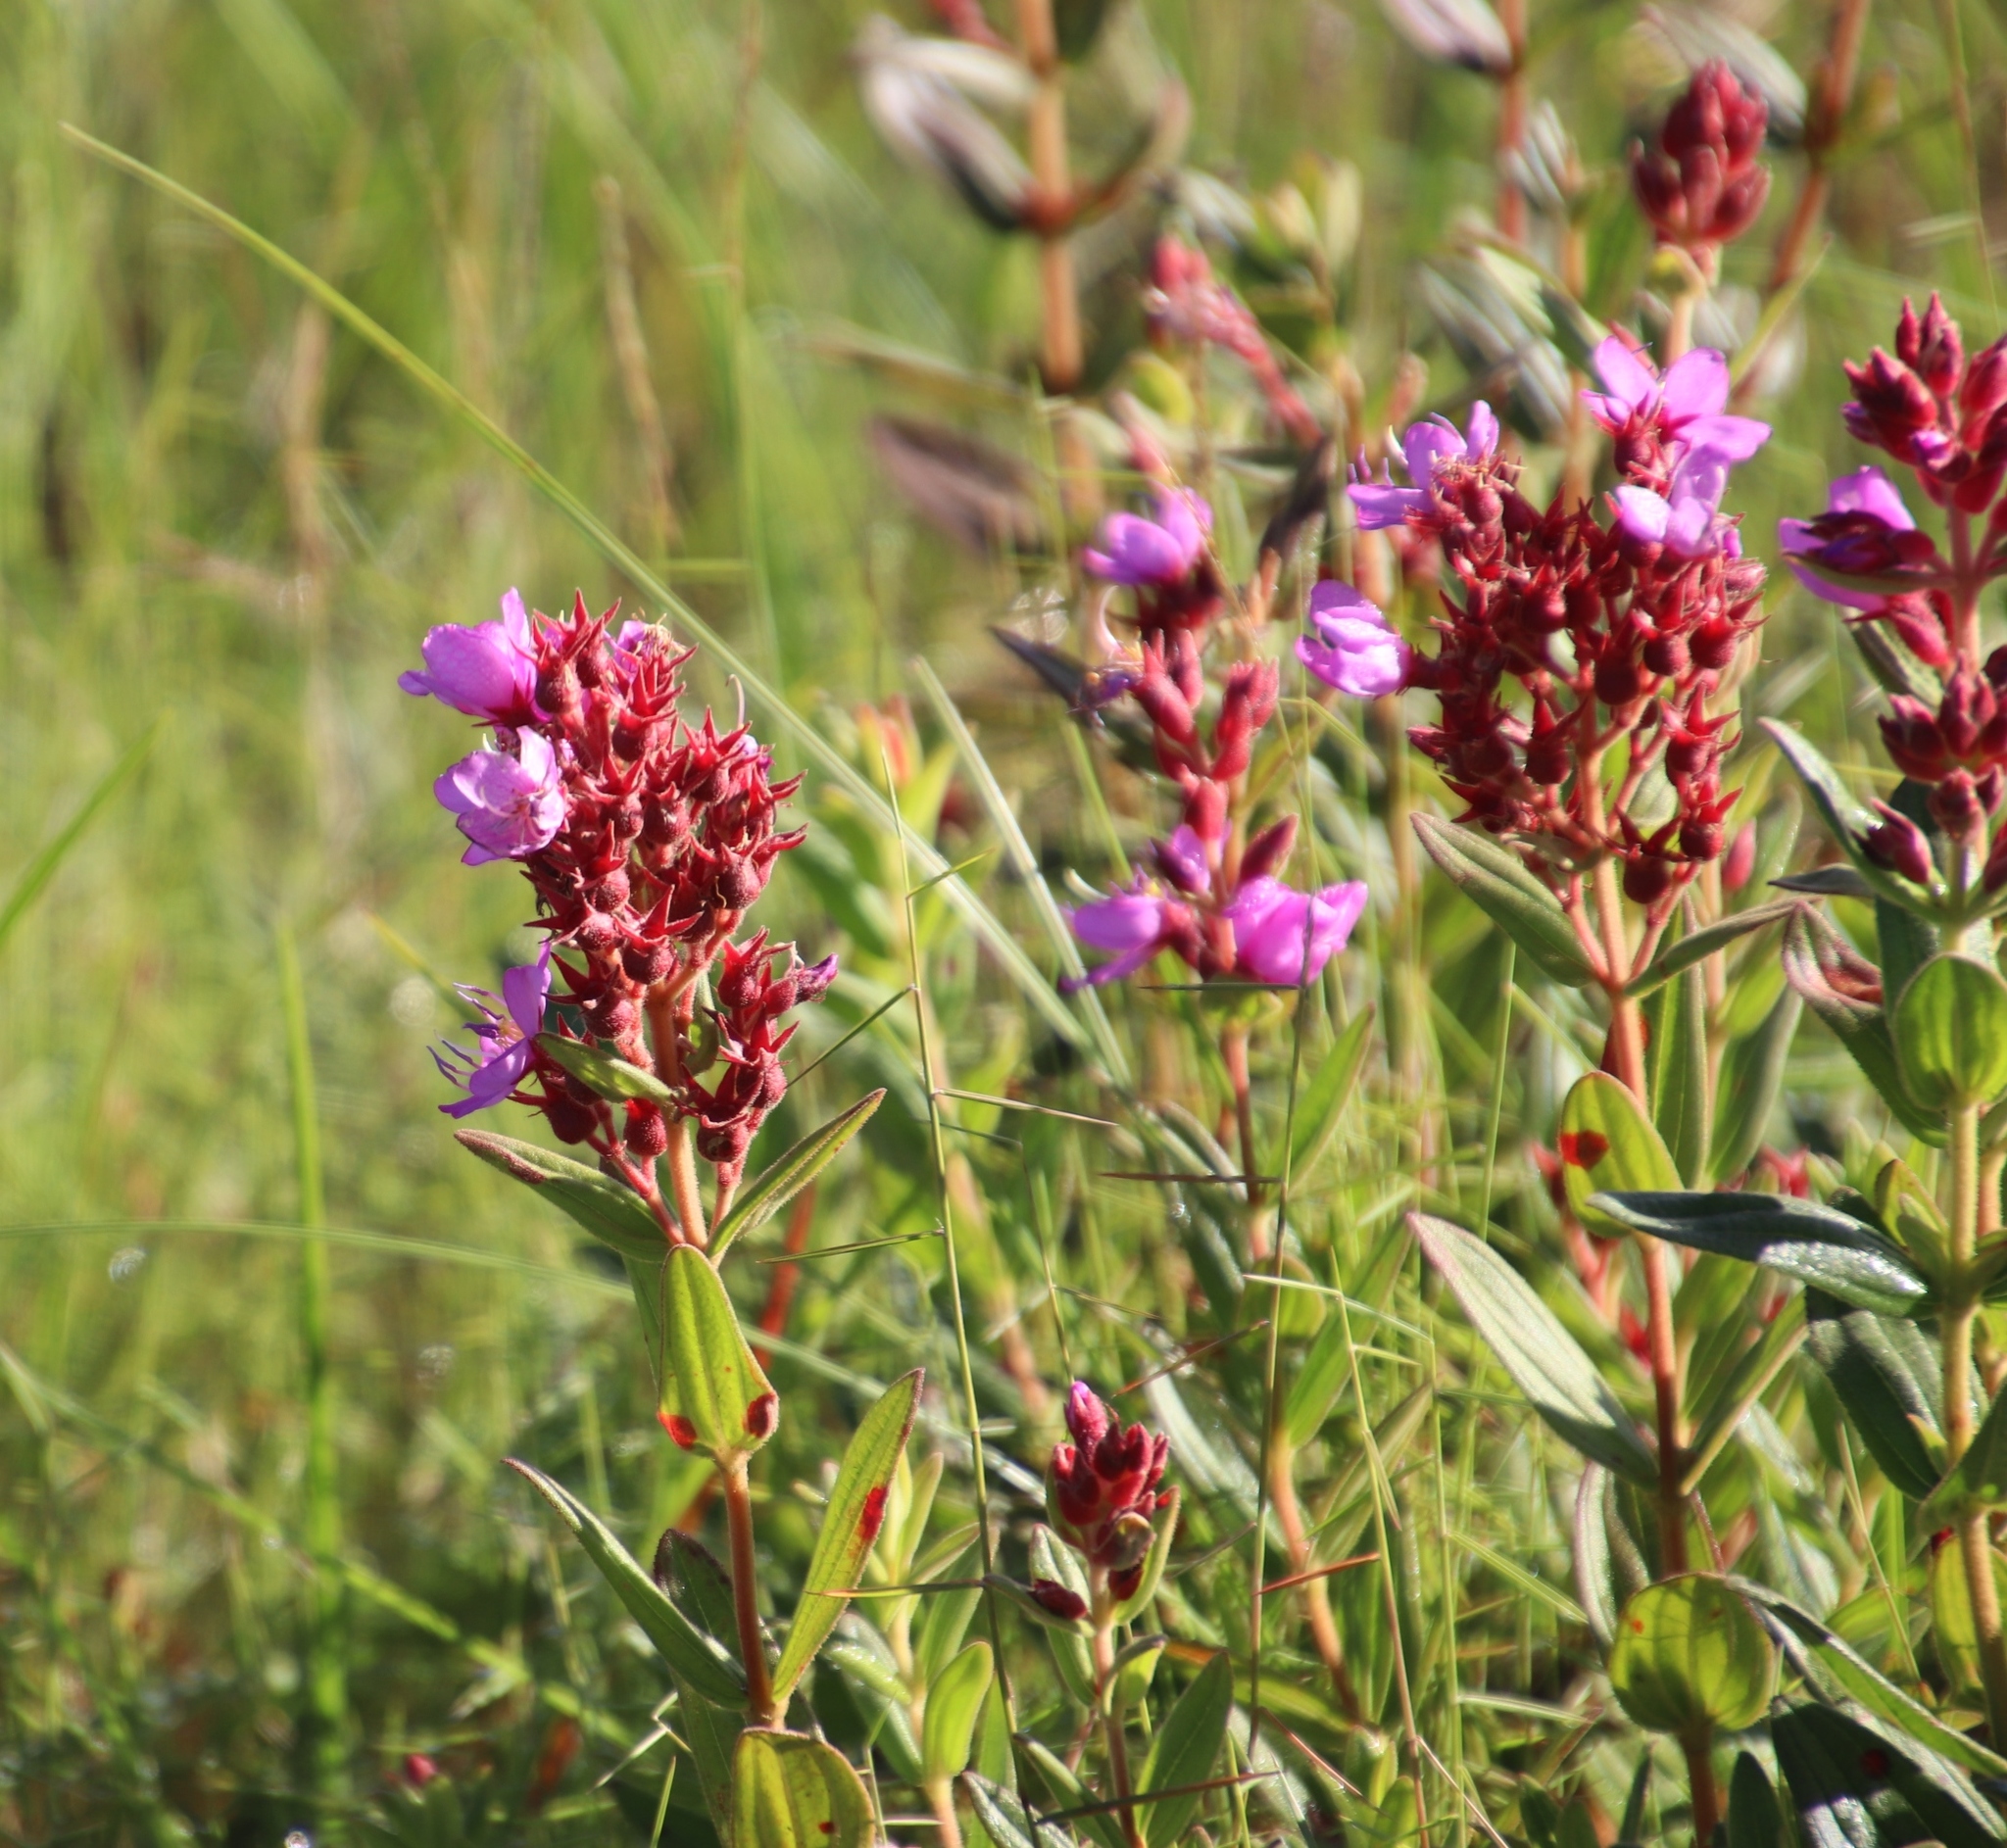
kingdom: Plantae
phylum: Tracheophyta
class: Magnoliopsida
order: Myrtales
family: Melastomataceae
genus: Argyrella
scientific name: Argyrella canescens
